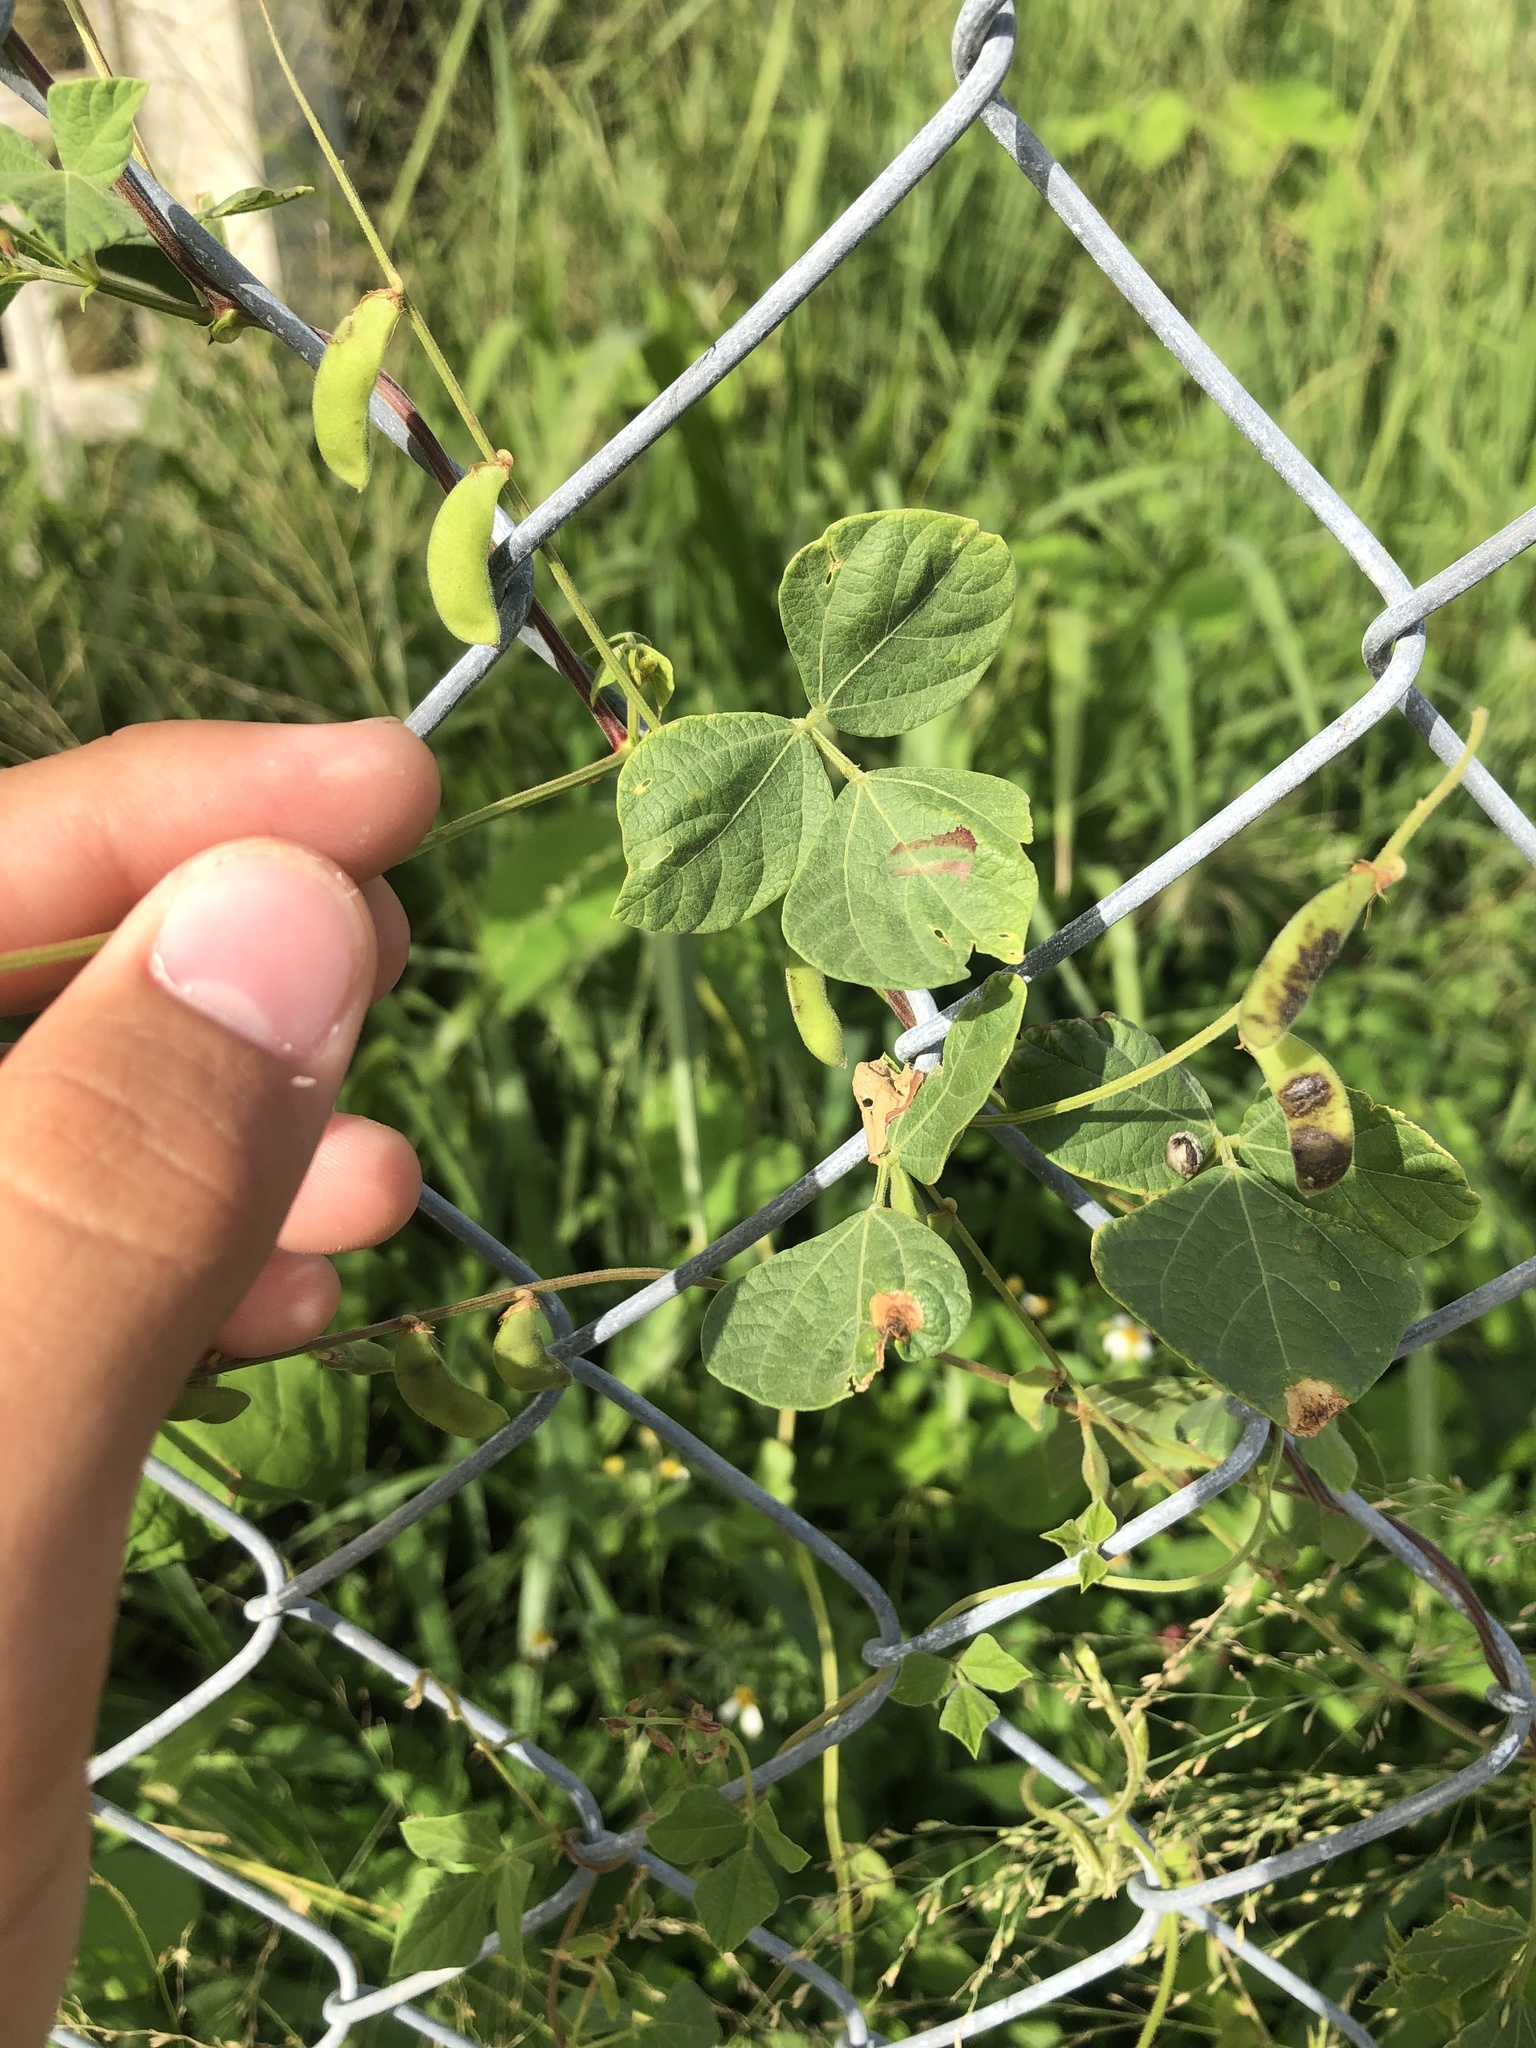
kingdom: Plantae
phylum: Tracheophyta
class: Magnoliopsida
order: Fabales
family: Fabaceae
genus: Rhynchosia
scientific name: Rhynchosia minima
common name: Least snoutbean
